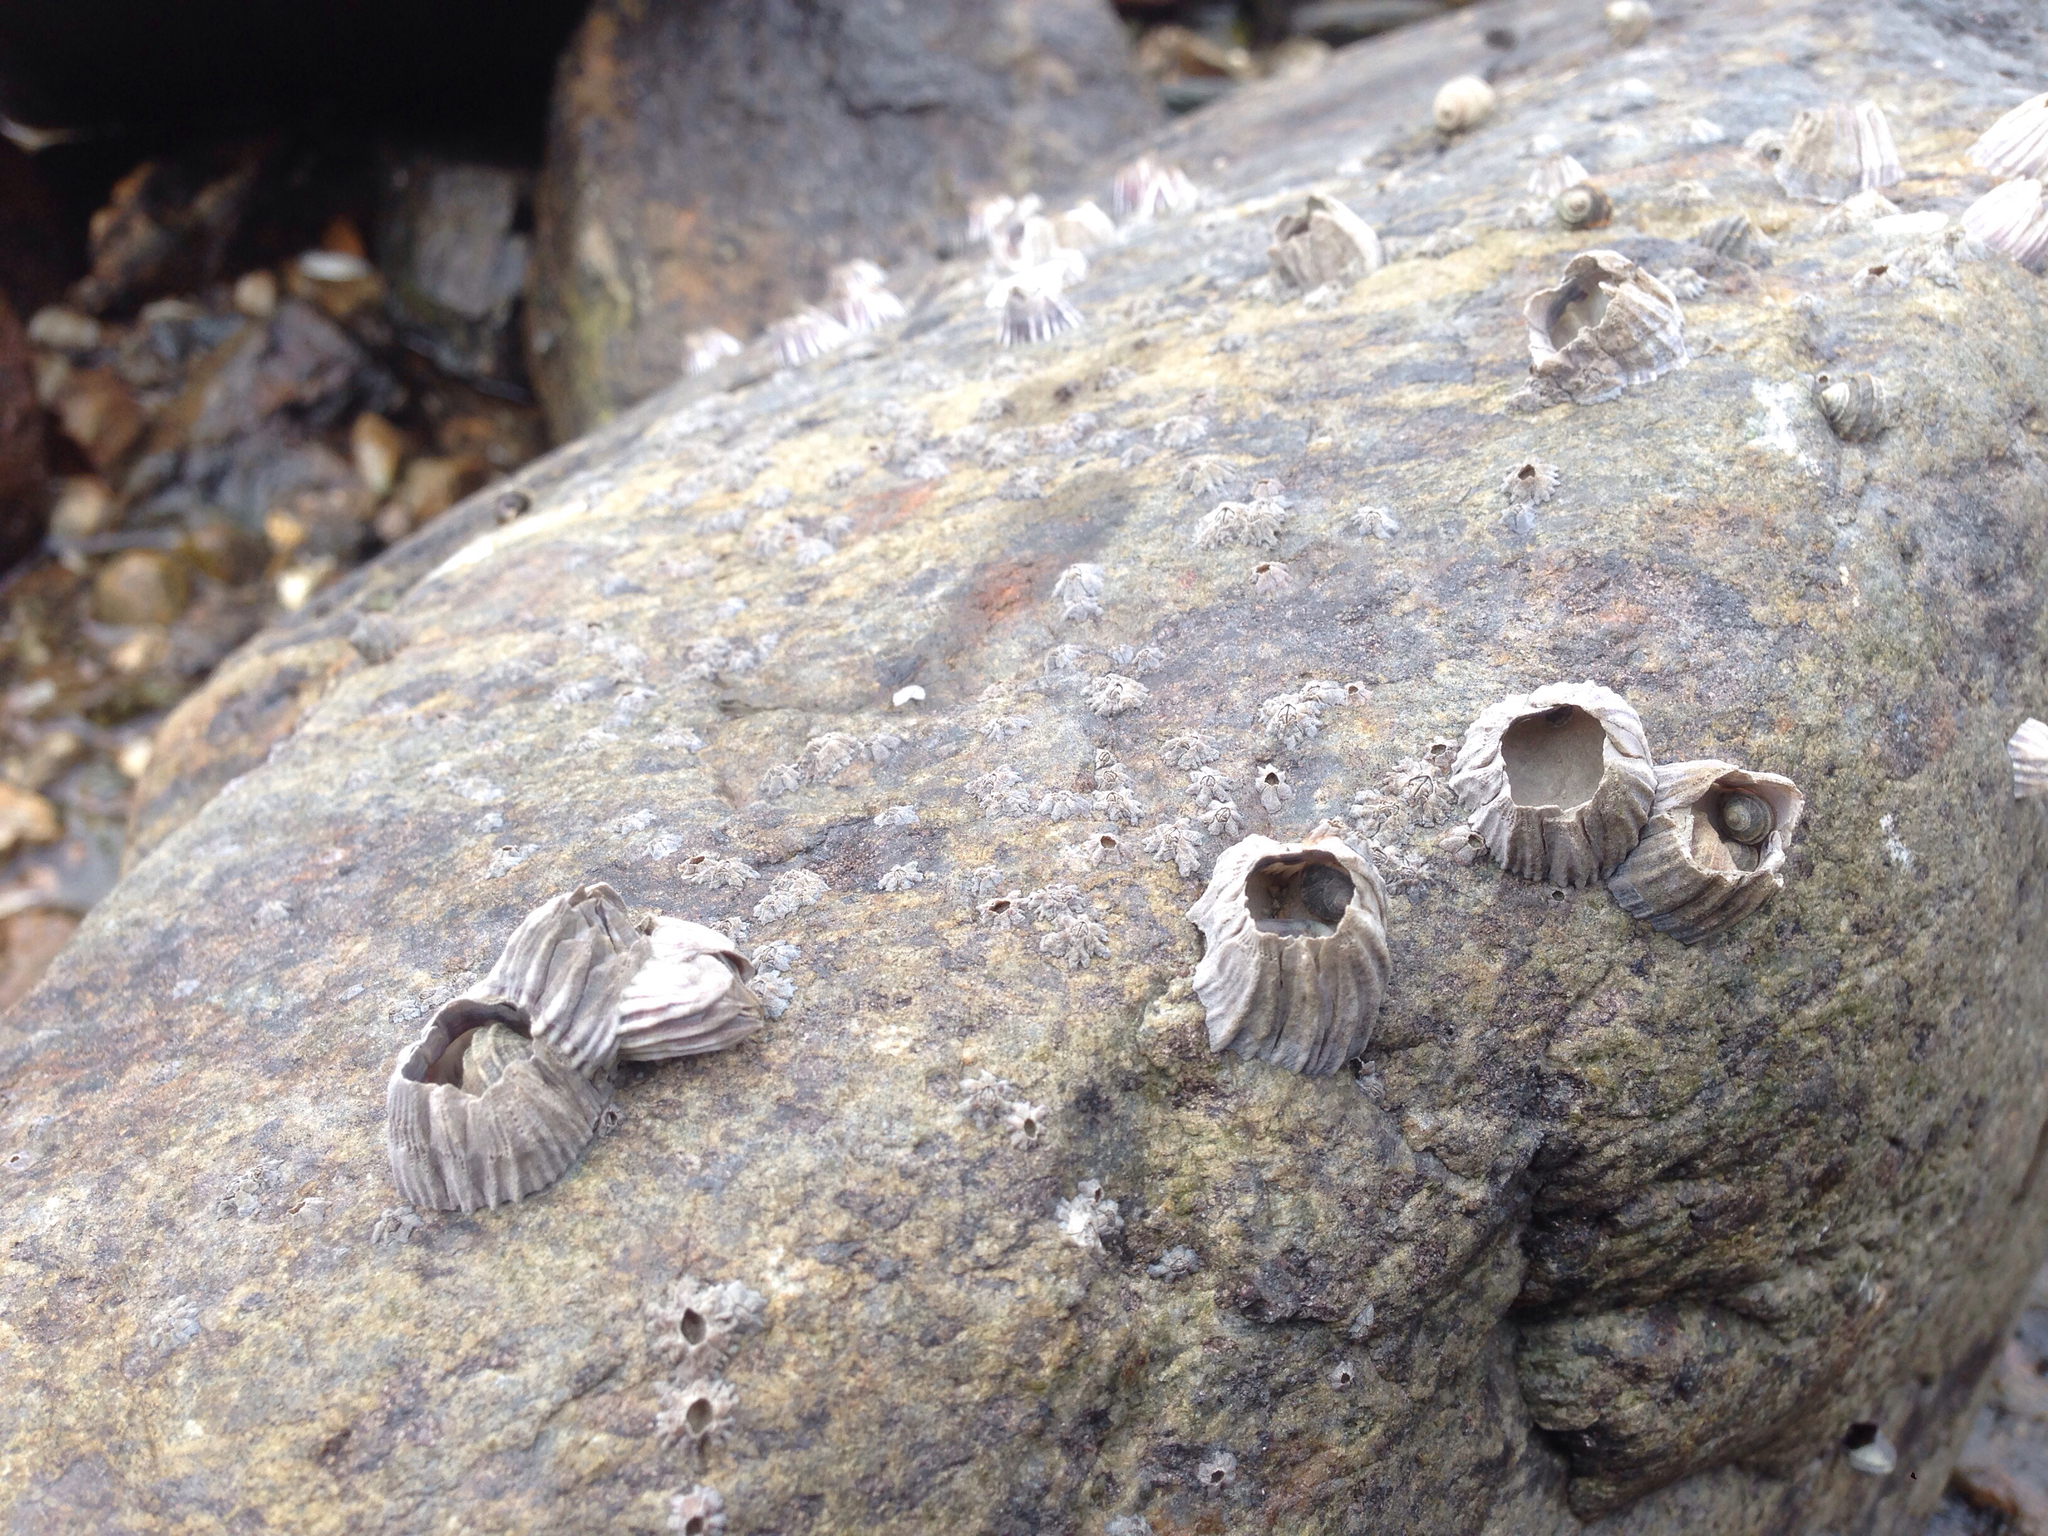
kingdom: Animalia
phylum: Arthropoda
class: Maxillopoda
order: Sessilia
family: Balanidae
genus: Fistulobalanus
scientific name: Fistulobalanus albicostatus
